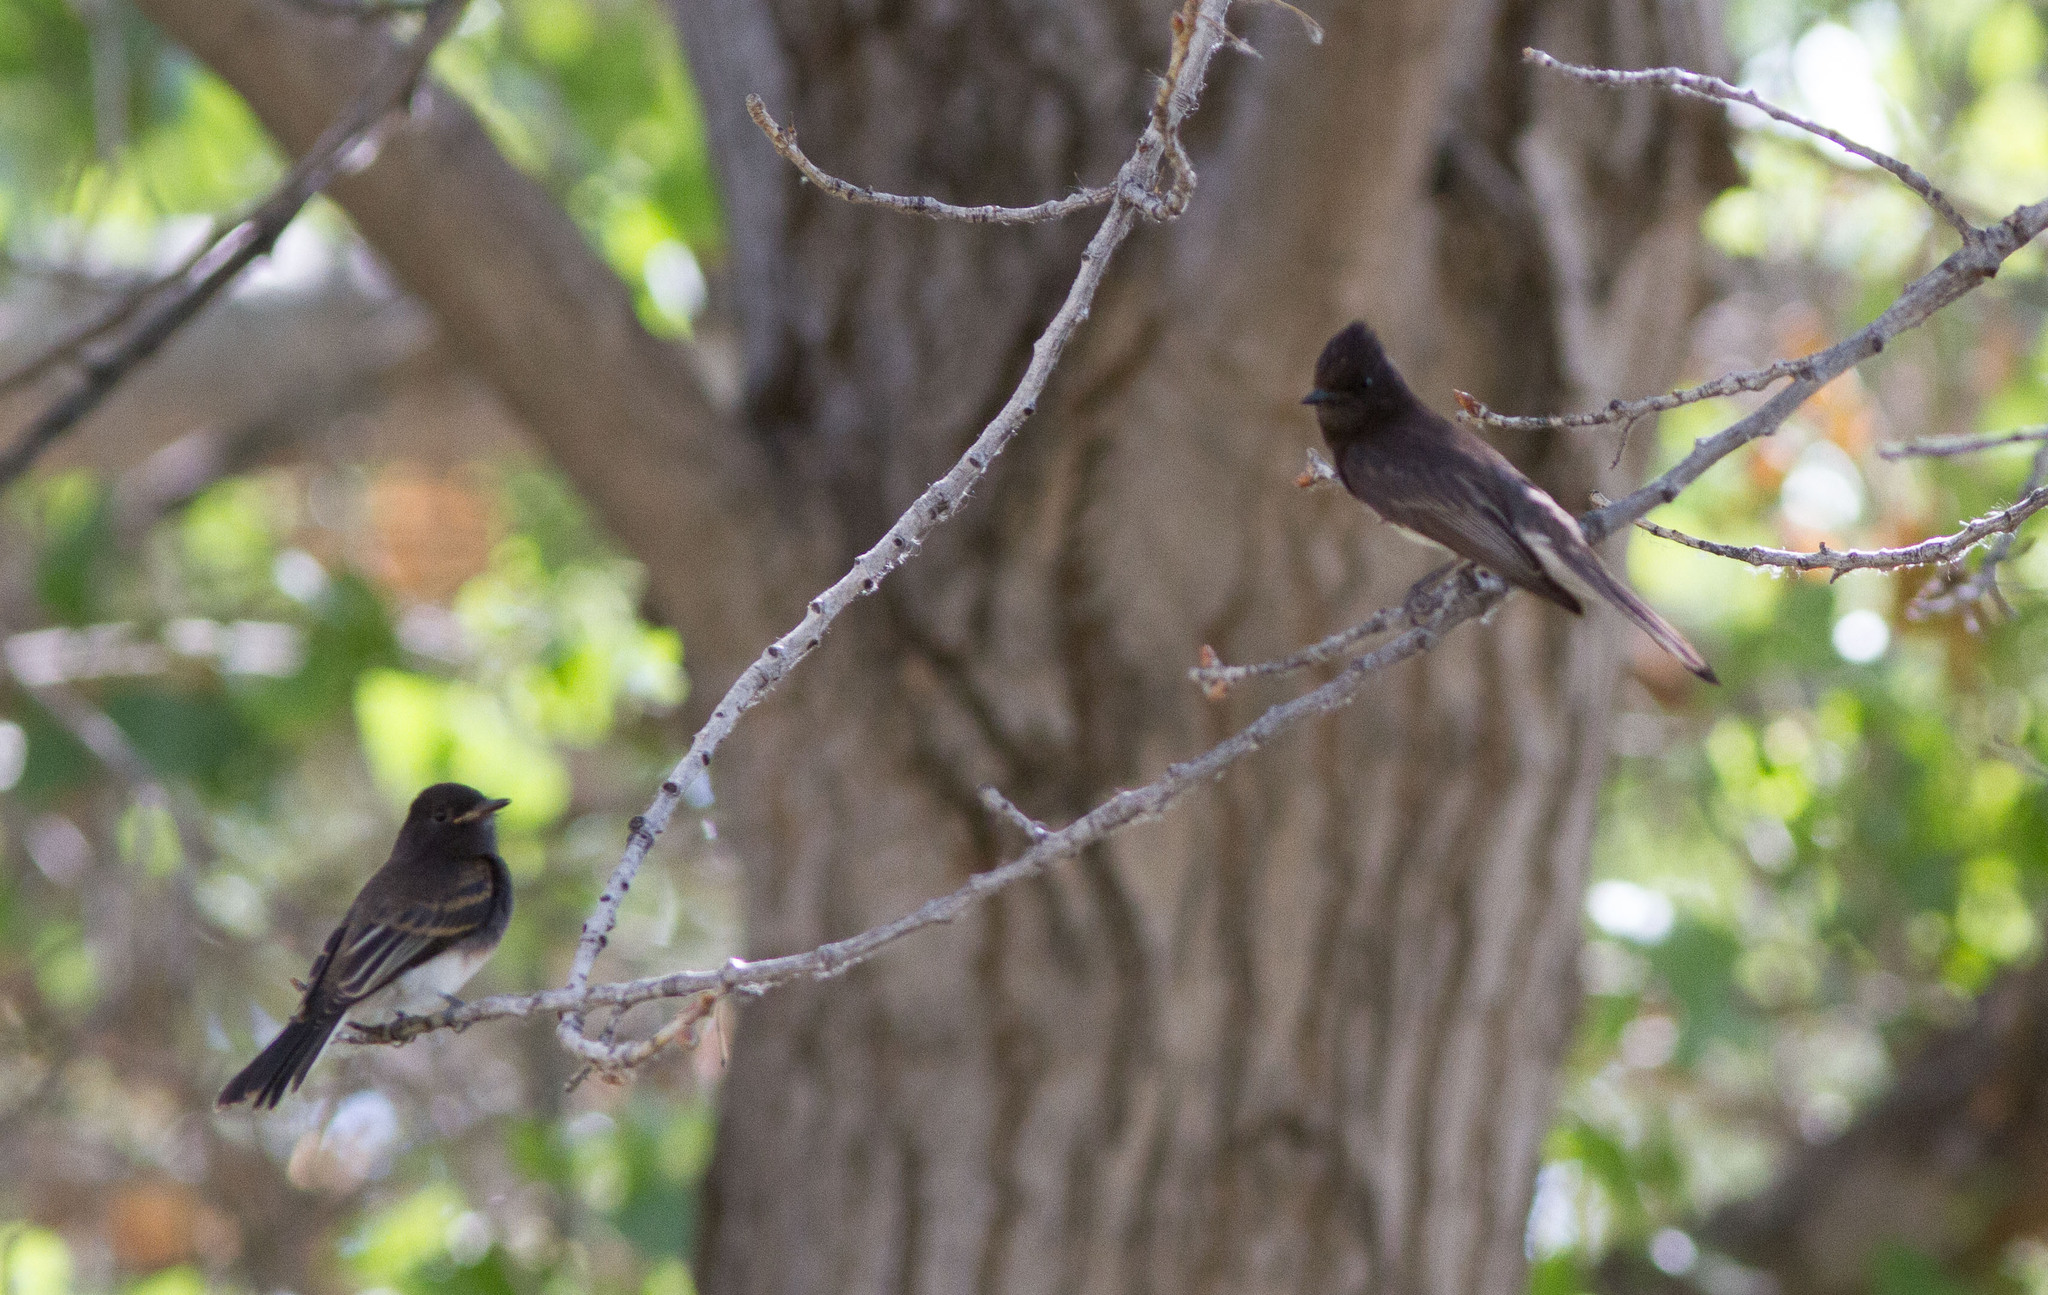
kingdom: Animalia
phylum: Chordata
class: Aves
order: Passeriformes
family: Tyrannidae
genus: Sayornis
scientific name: Sayornis nigricans
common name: Black phoebe
